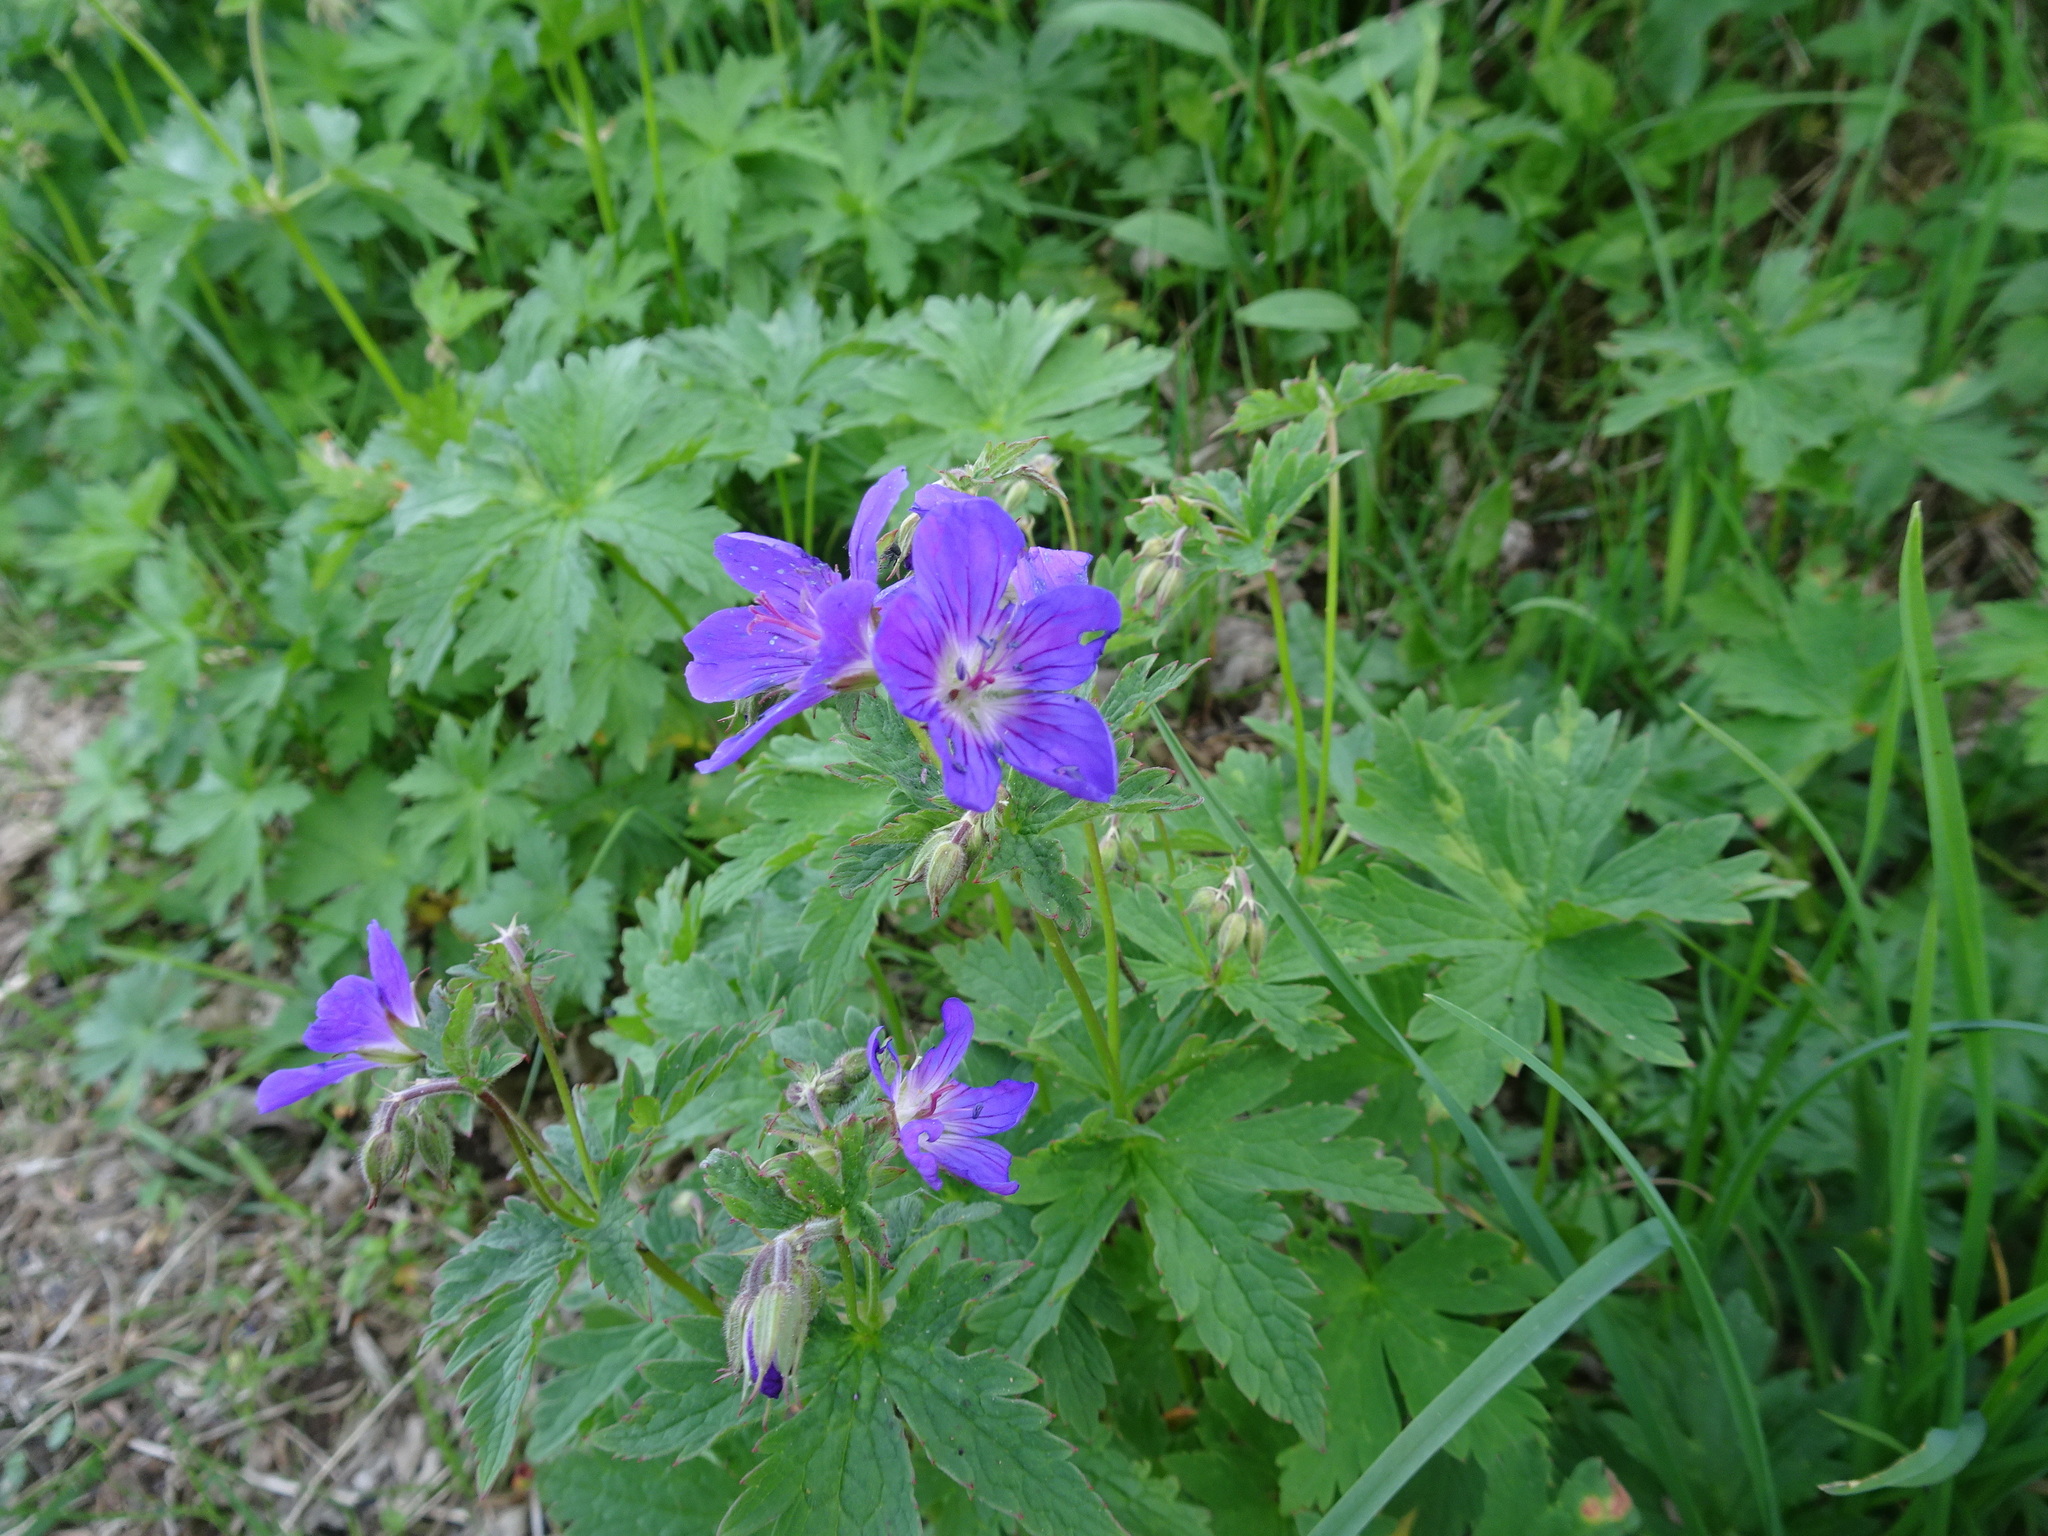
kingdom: Plantae
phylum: Tracheophyta
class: Magnoliopsida
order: Geraniales
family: Geraniaceae
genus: Geranium
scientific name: Geranium sylvaticum
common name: Wood crane's-bill
